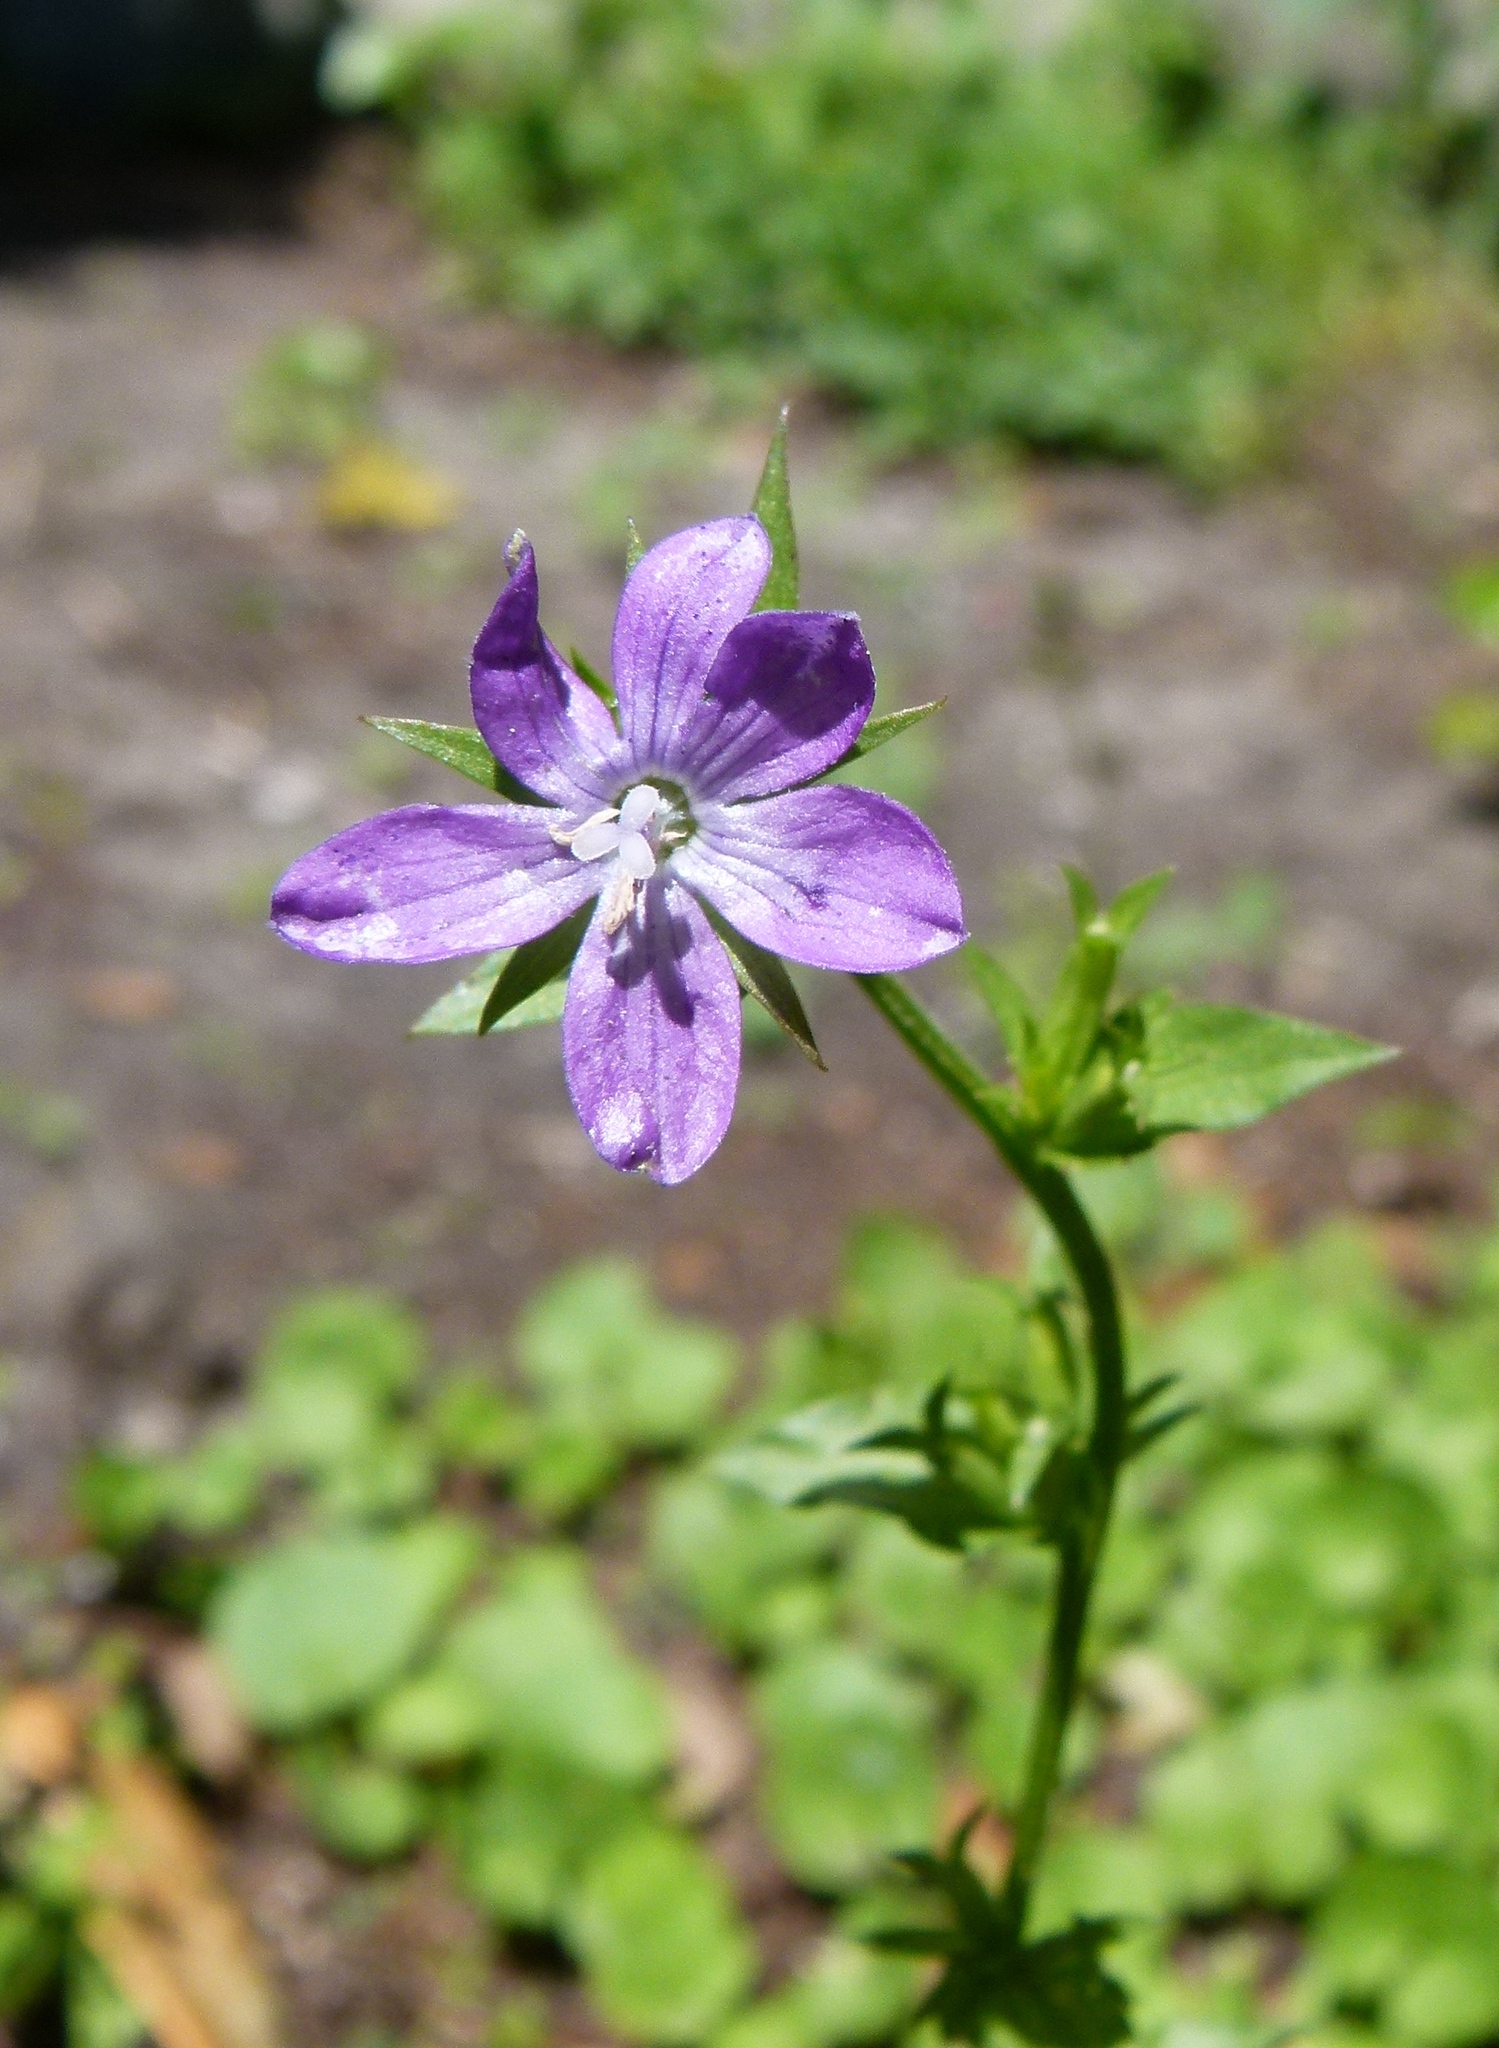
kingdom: Plantae
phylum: Tracheophyta
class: Magnoliopsida
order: Asterales
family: Campanulaceae
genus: Triodanis
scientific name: Triodanis perfoliata
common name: Clasping venus' looking-glass
